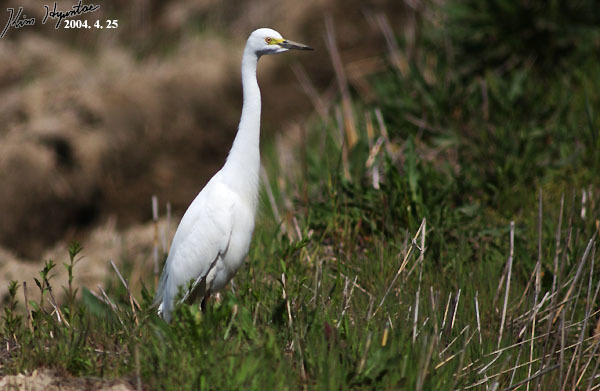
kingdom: Animalia
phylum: Chordata
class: Aves
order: Pelecaniformes
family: Ardeidae
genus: Egretta
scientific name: Egretta intermedia
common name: Intermediate egret
